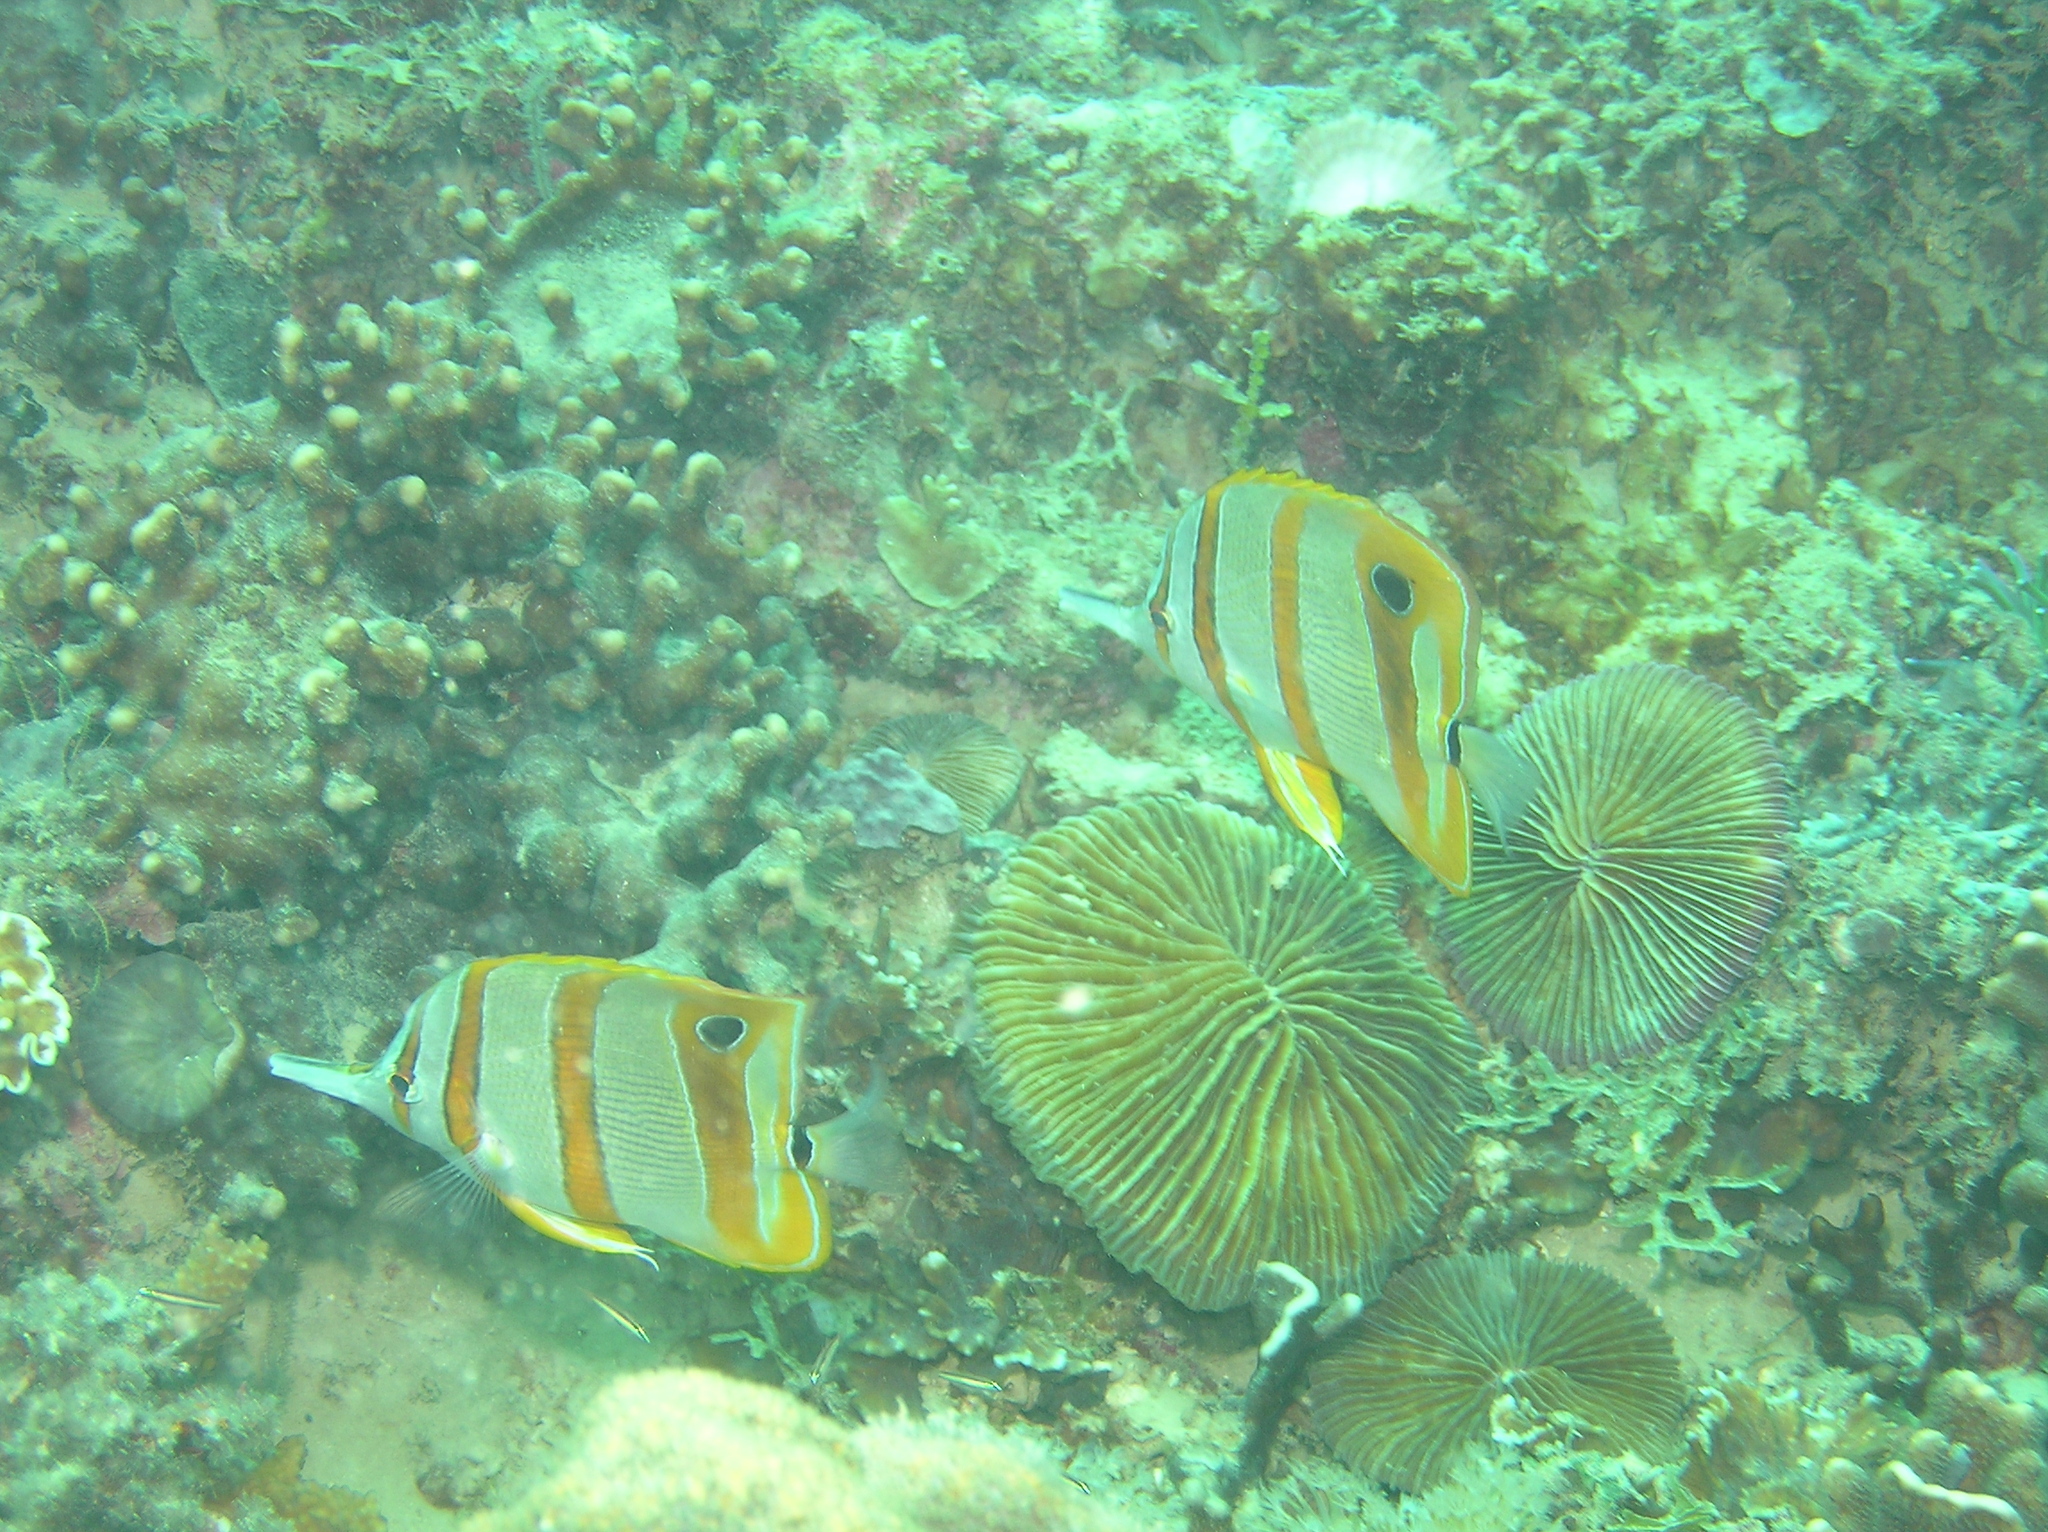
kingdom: Animalia
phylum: Chordata
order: Perciformes
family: Chaetodontidae
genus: Chelmon
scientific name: Chelmon rostratus
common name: Beaked butterflyfish
